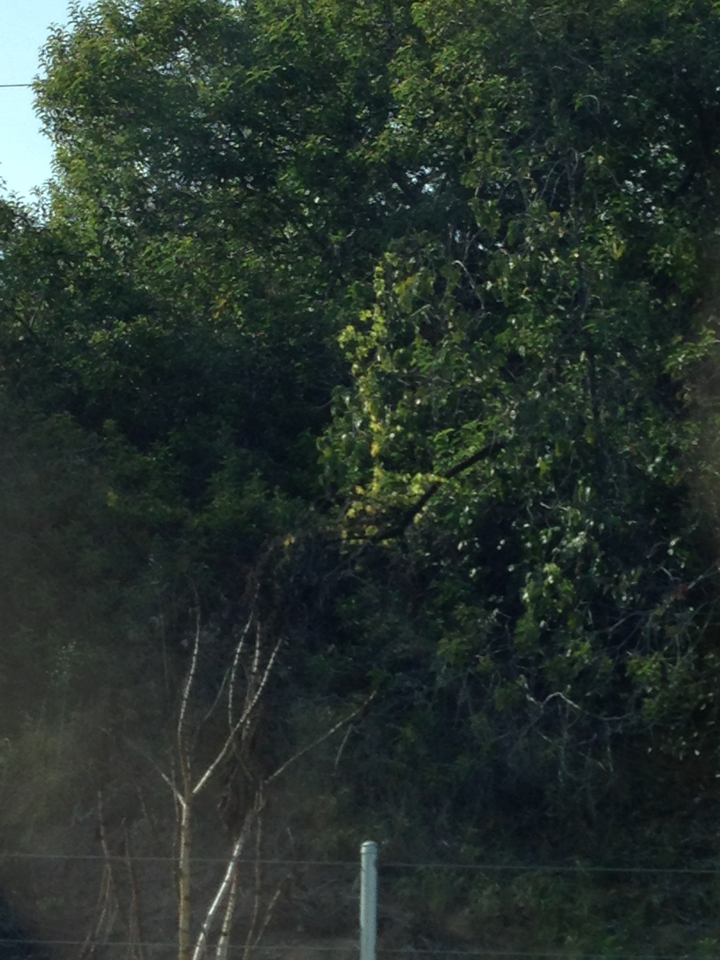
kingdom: Plantae
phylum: Tracheophyta
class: Magnoliopsida
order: Cucurbitales
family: Cucurbitaceae
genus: Marah
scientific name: Marah macrocarpa
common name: Cucamonga manroot
